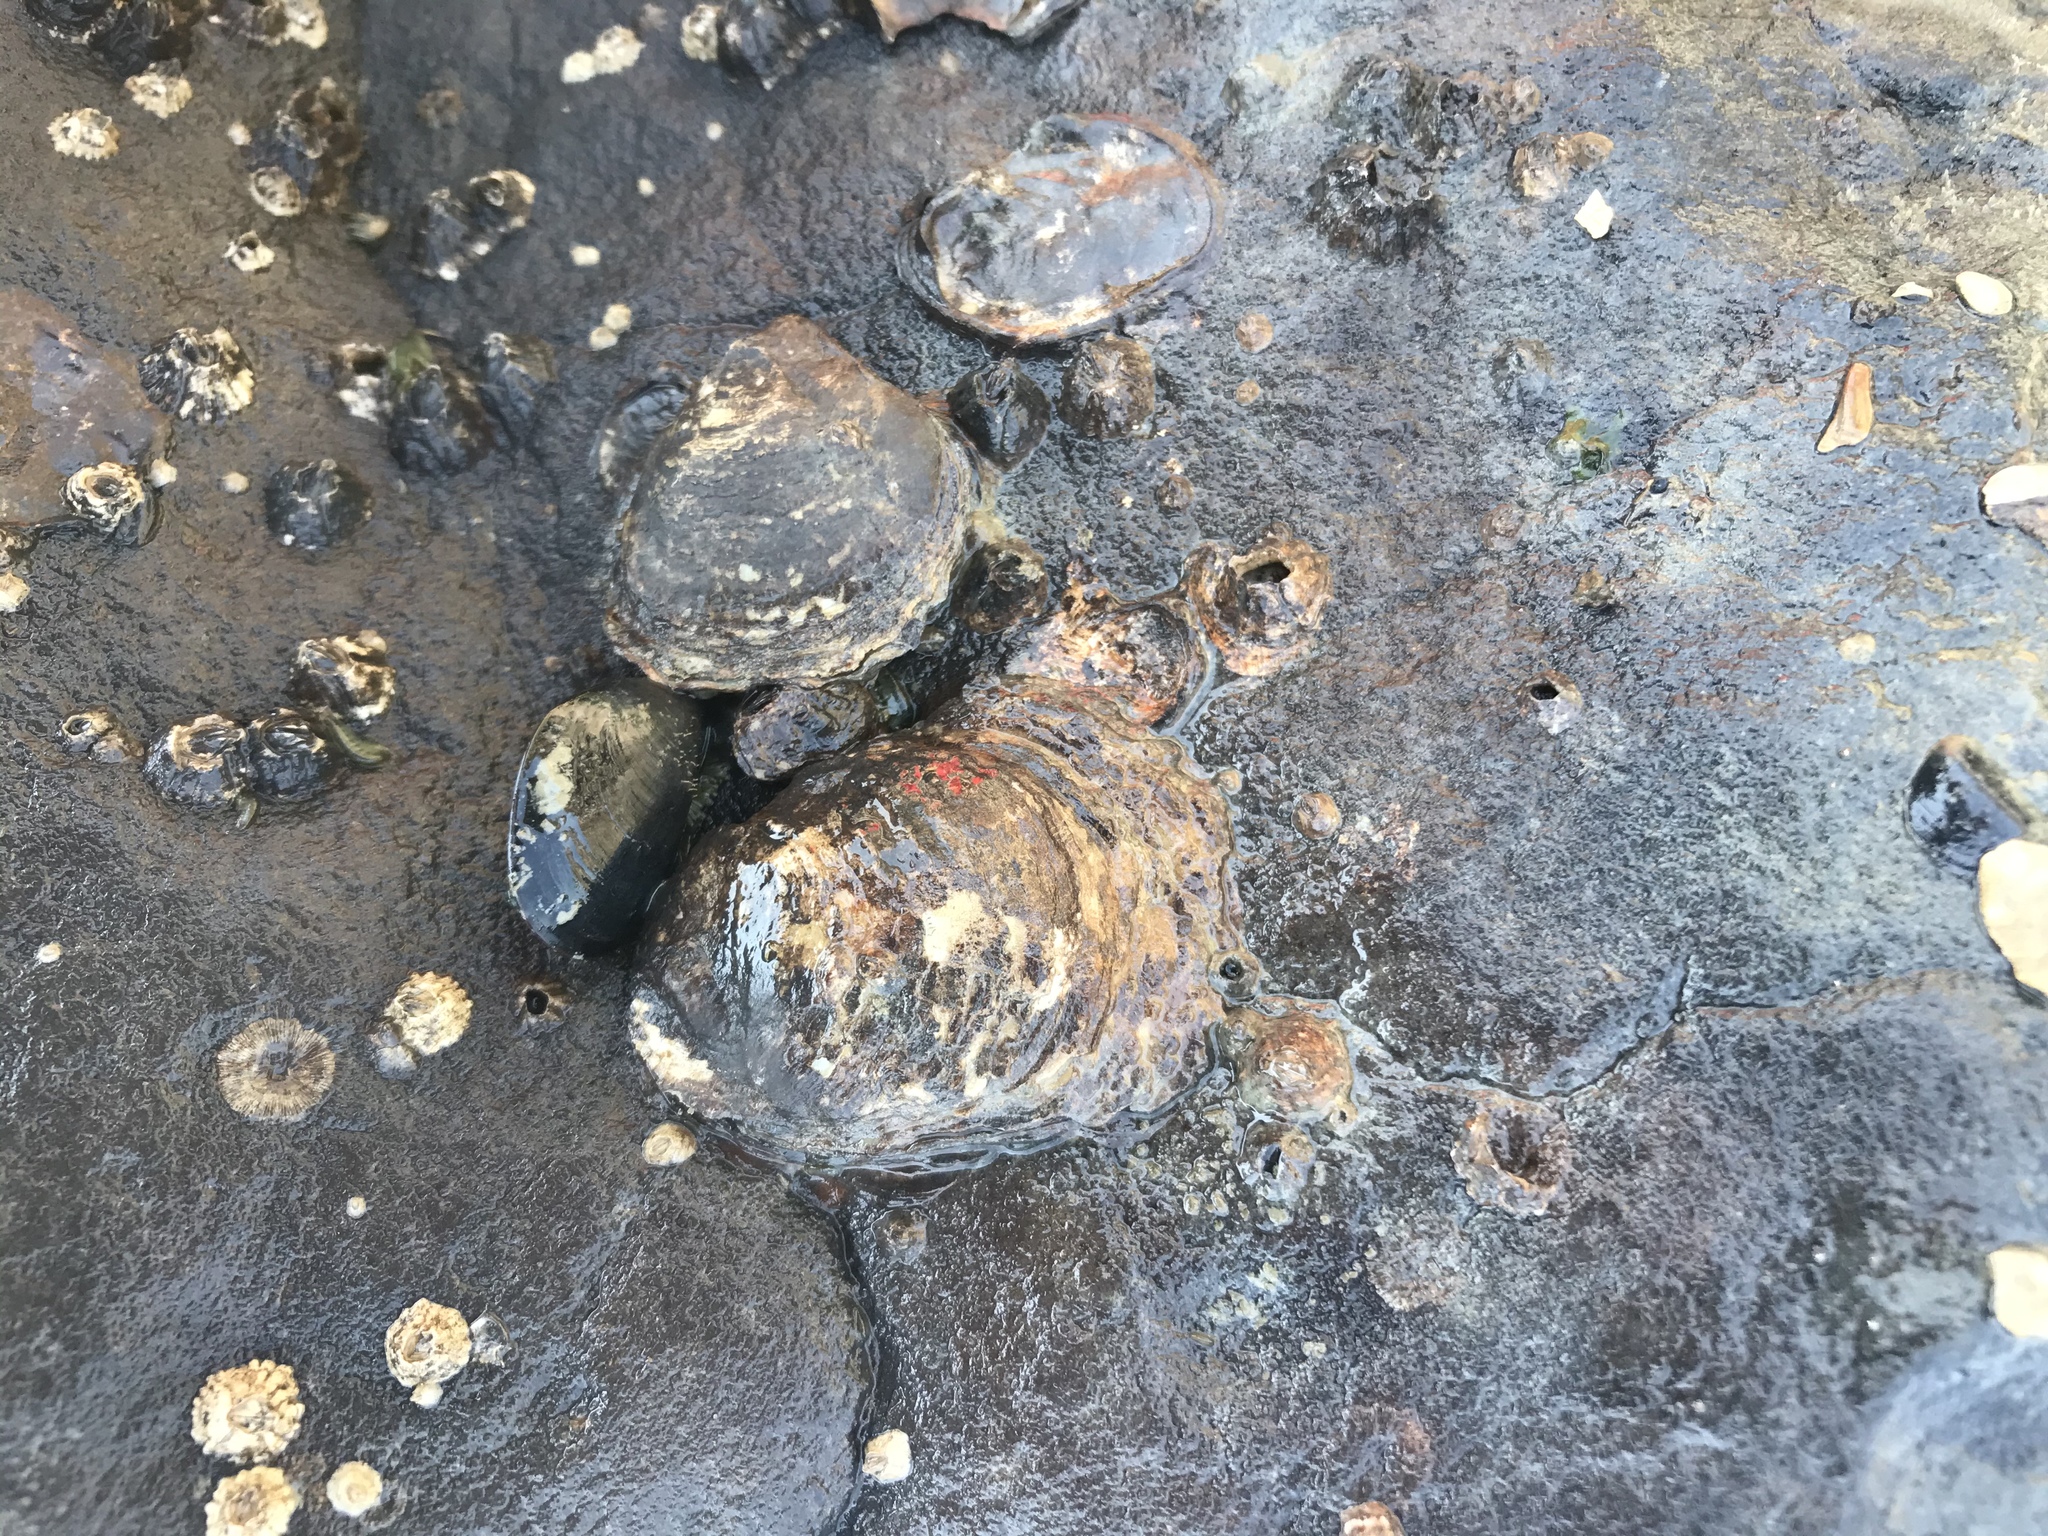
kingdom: Animalia
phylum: Mollusca
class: Bivalvia
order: Ostreida
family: Ostreidae
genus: Ostrea
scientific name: Ostrea lurida
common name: Olympia flat oyster
